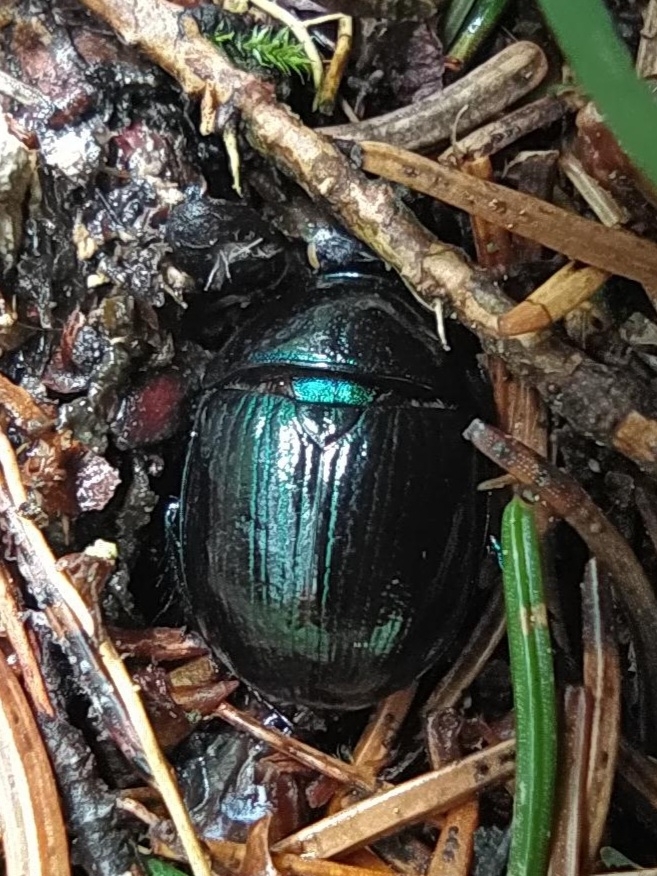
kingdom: Animalia
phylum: Arthropoda
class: Insecta
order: Coleoptera
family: Geotrupidae
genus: Anoplotrupes
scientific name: Anoplotrupes stercorosus
